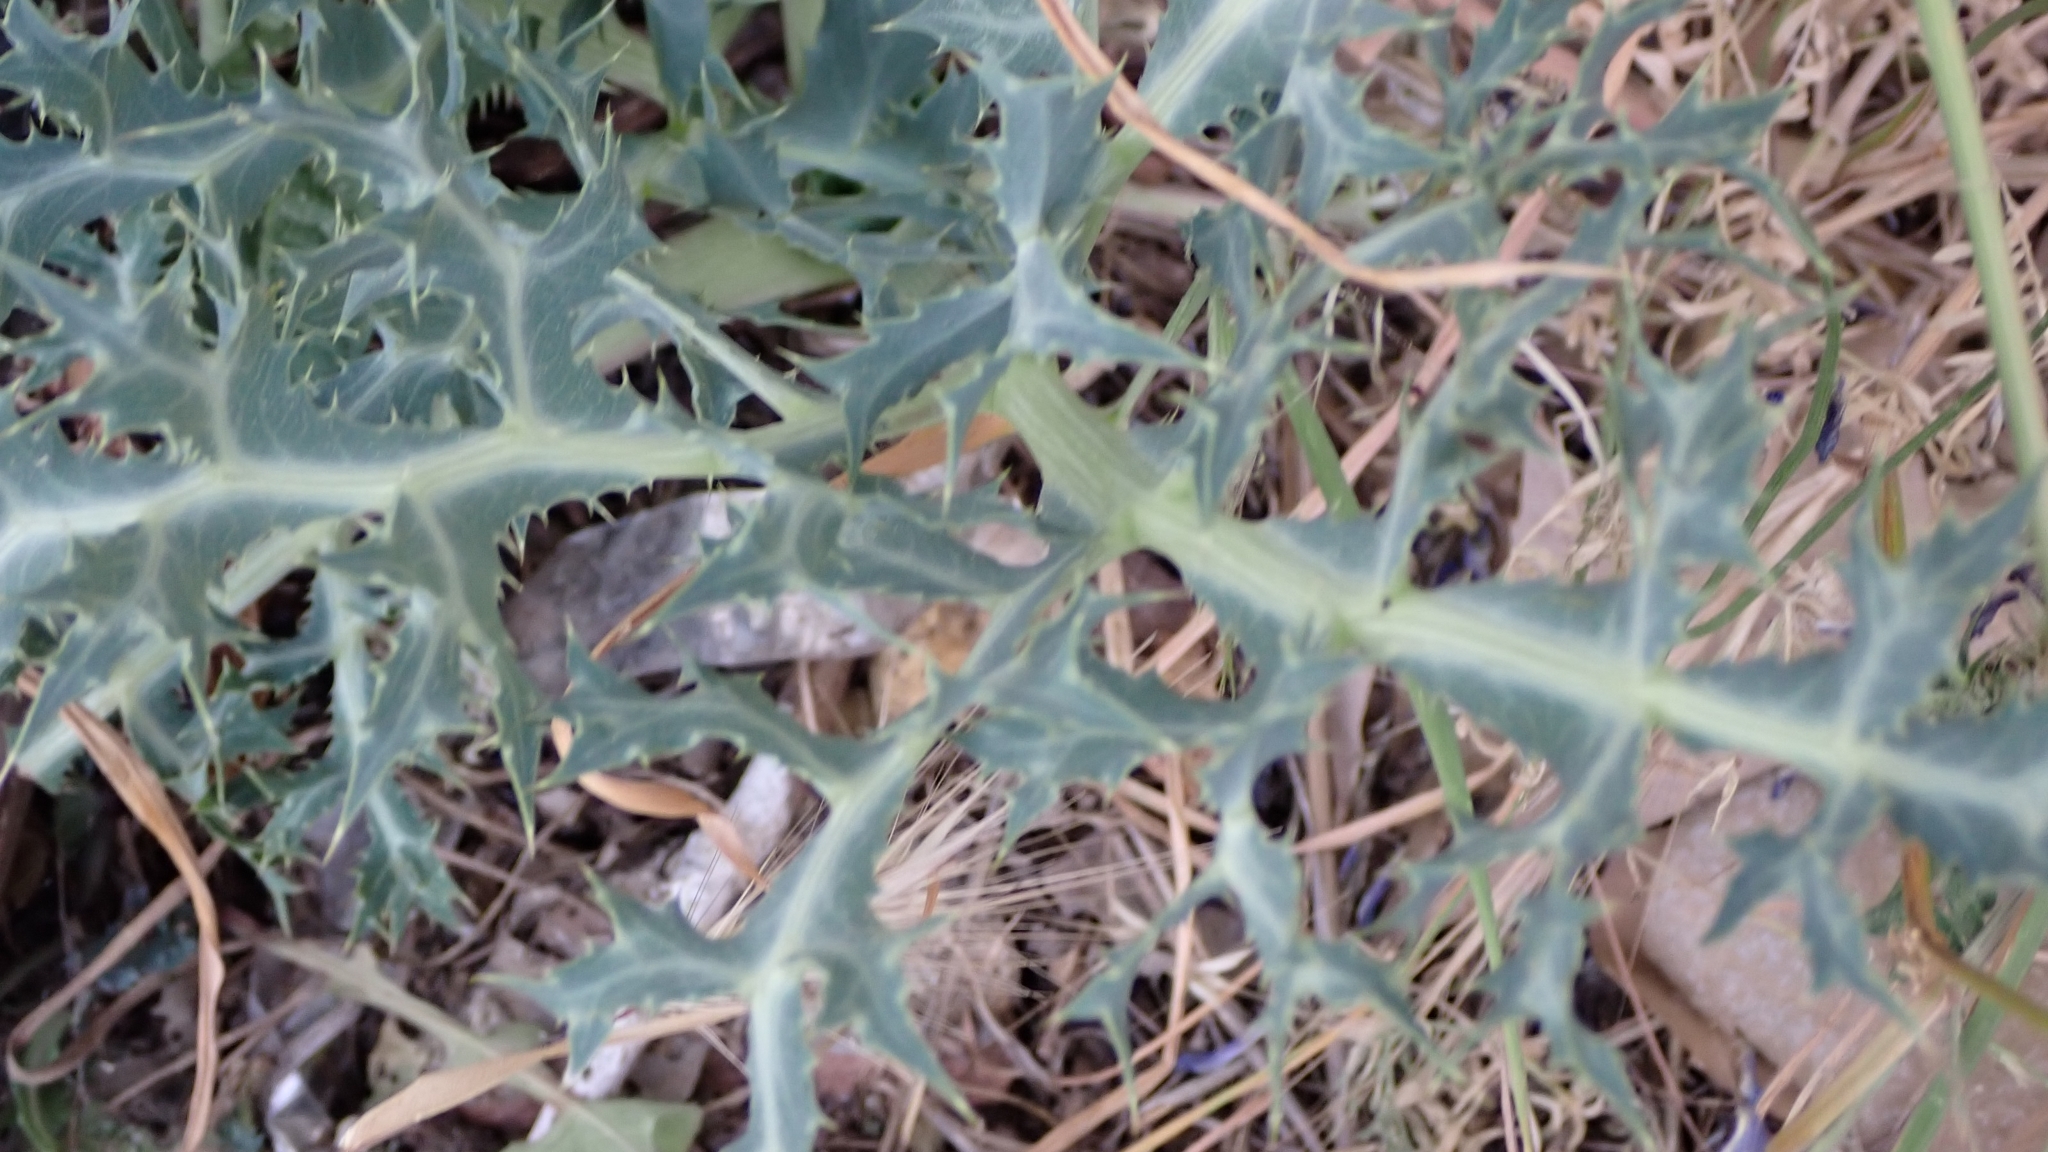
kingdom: Plantae
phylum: Tracheophyta
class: Magnoliopsida
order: Apiales
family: Apiaceae
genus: Eryngium
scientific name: Eryngium campestre
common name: Field eryngo
